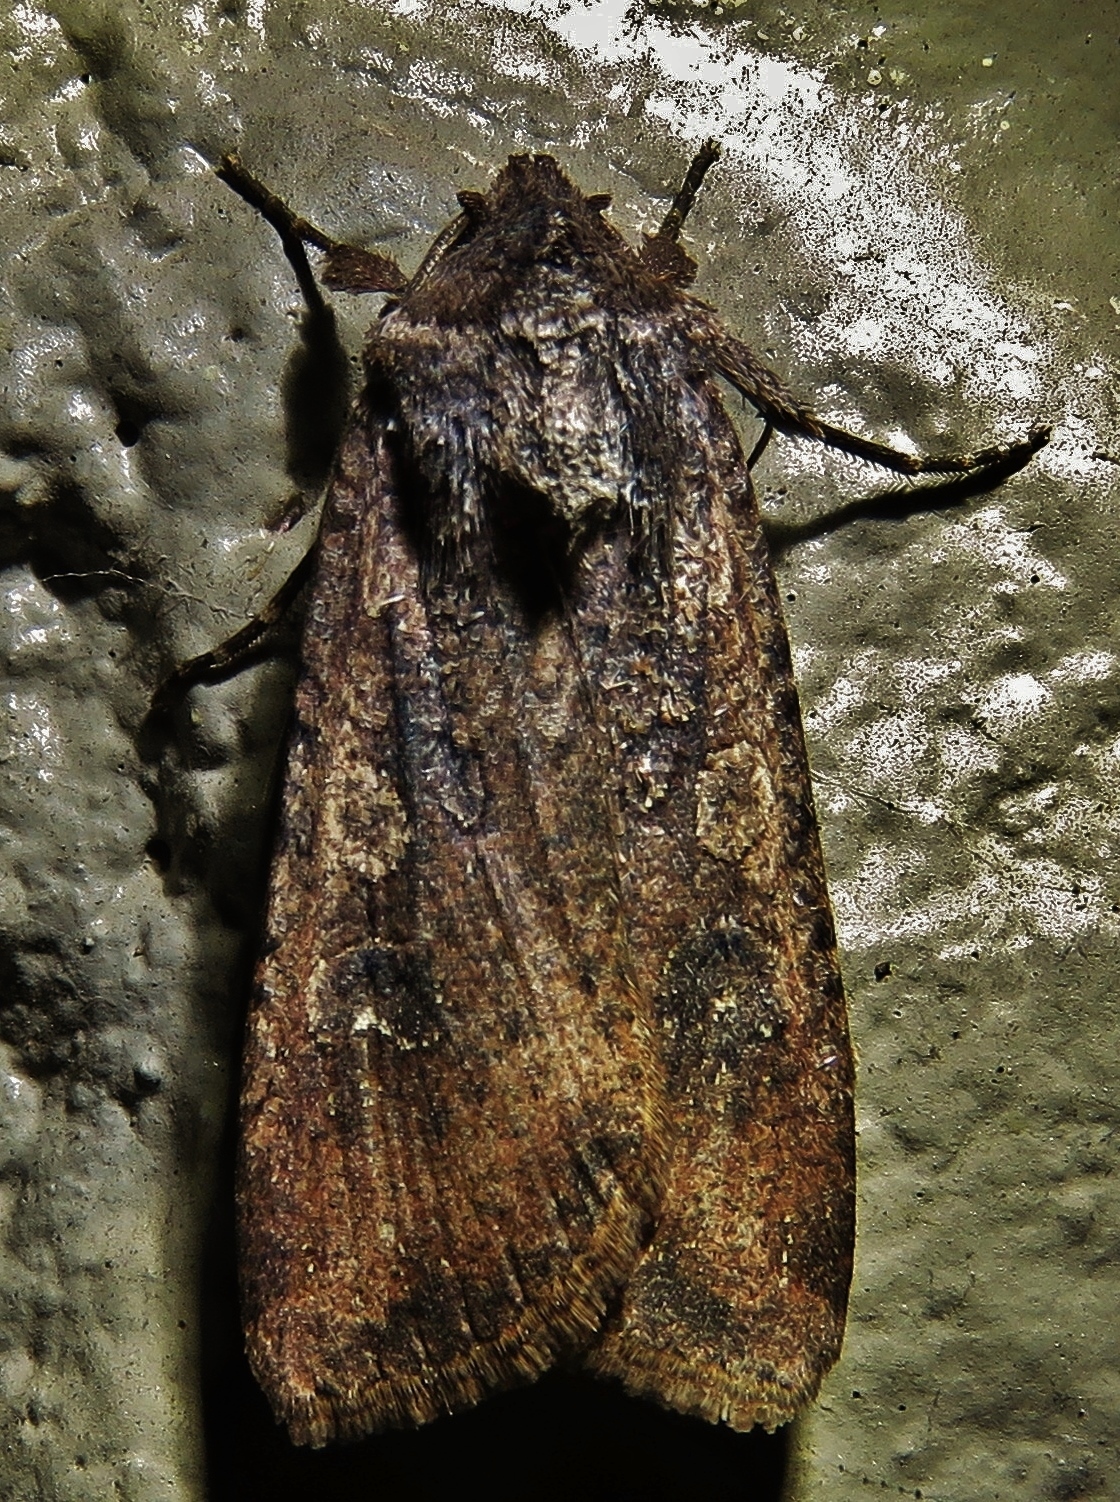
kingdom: Animalia
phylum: Arthropoda
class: Insecta
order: Lepidoptera
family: Noctuidae
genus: Peridroma
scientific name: Peridroma saucia
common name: Pearly underwing
